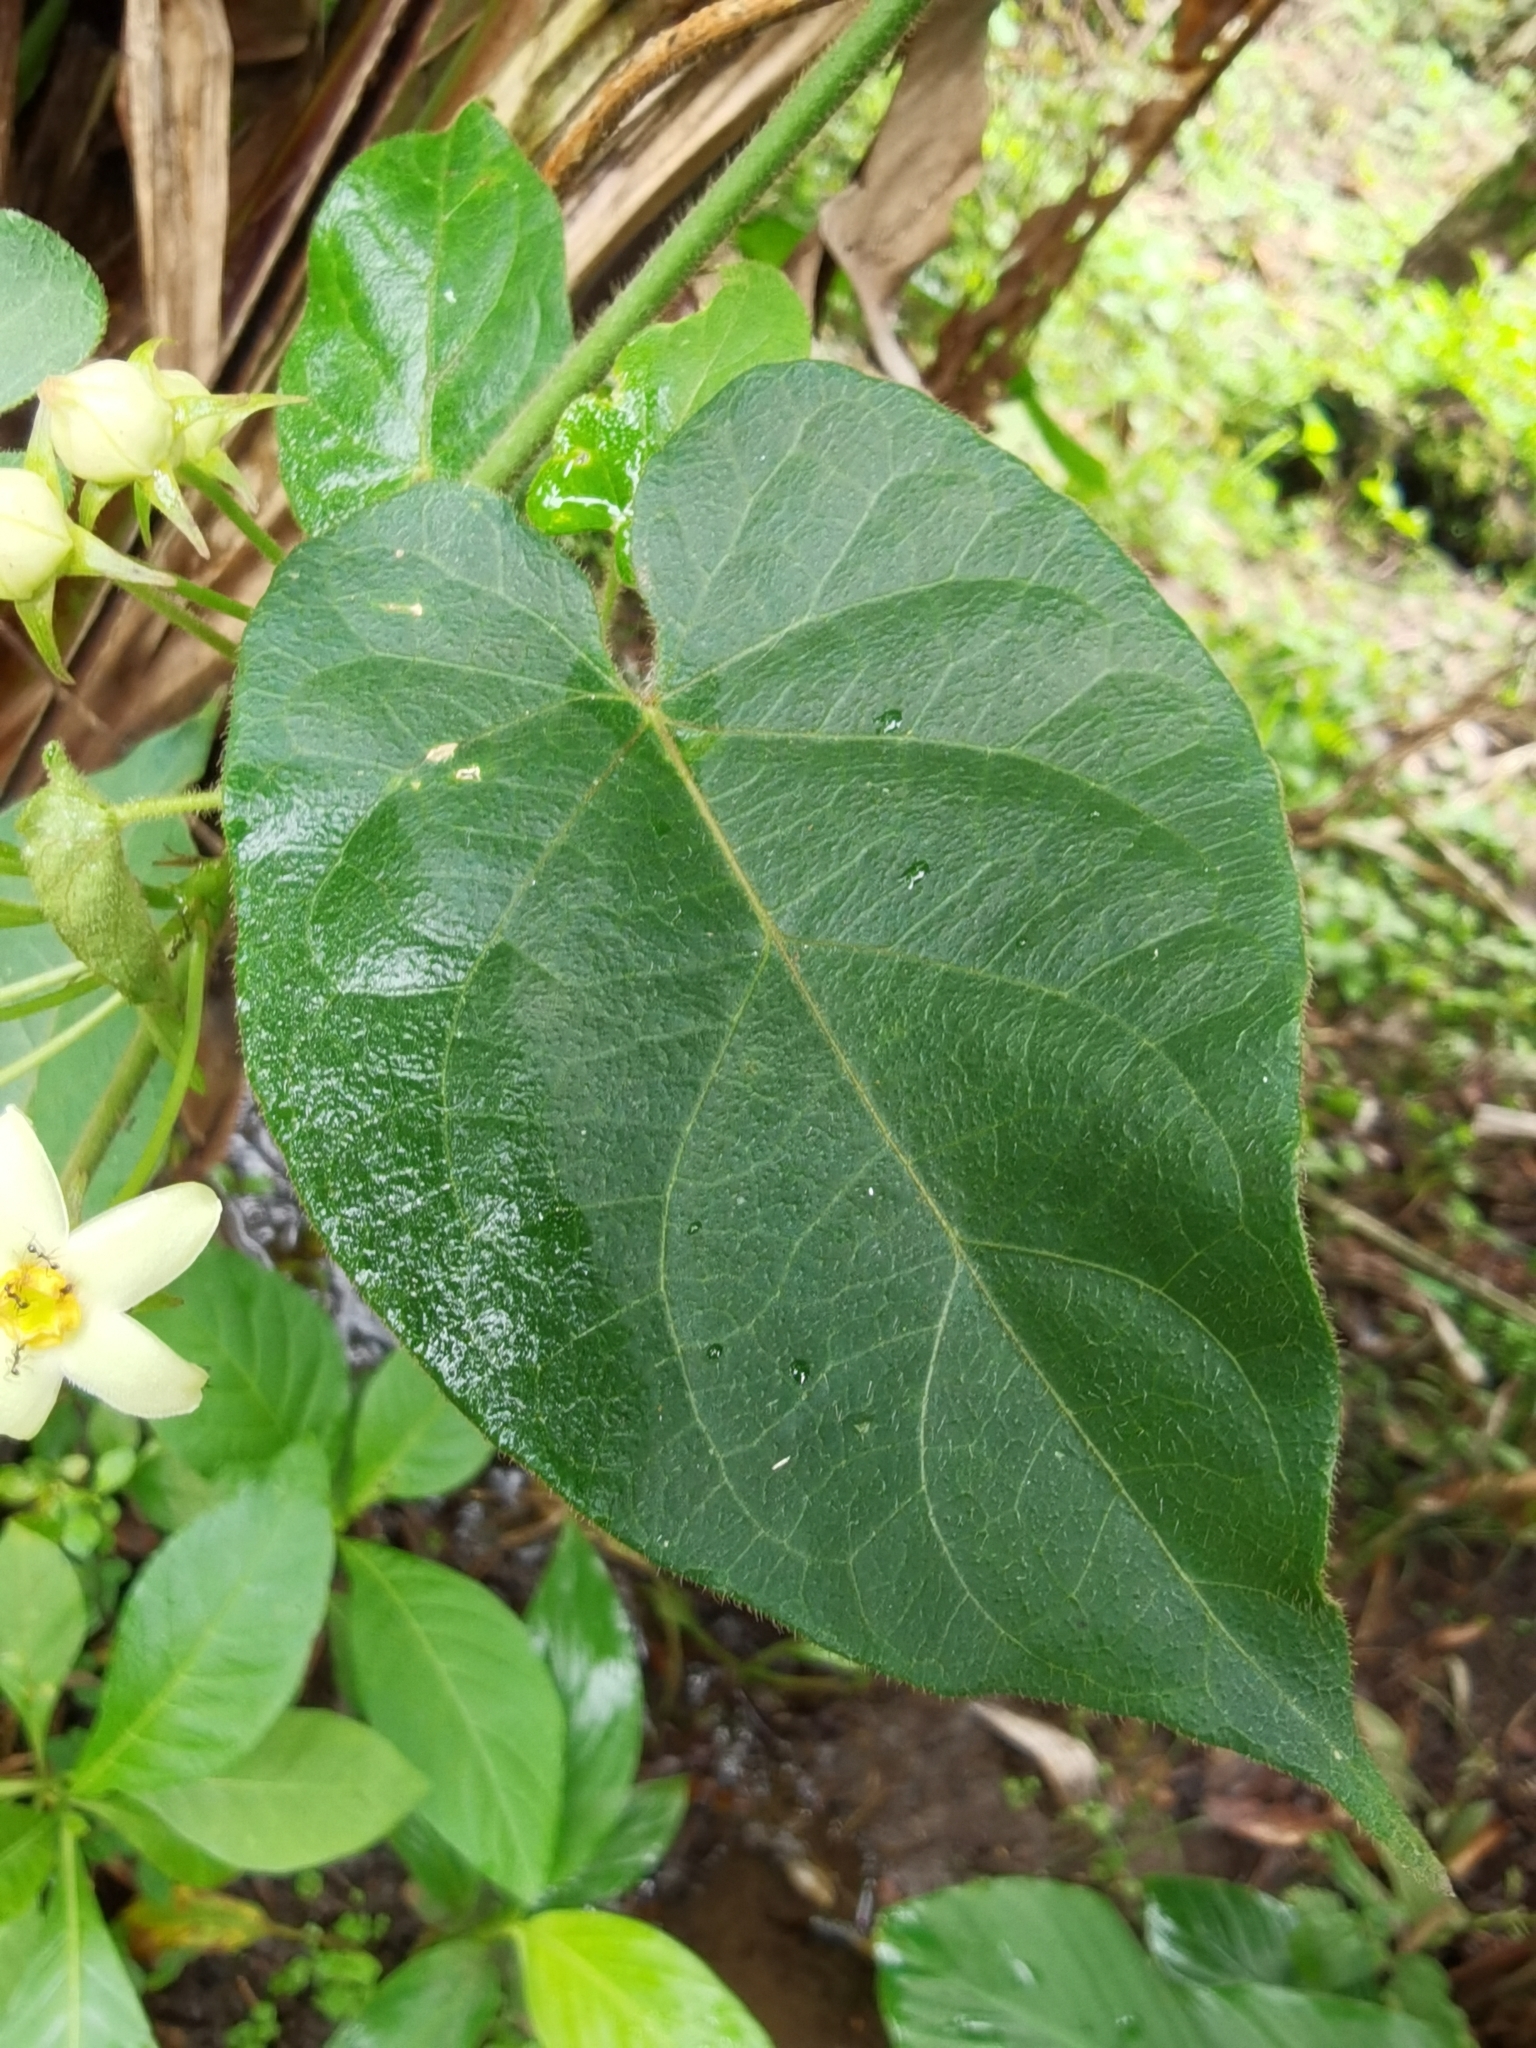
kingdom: Plantae
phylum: Tracheophyta
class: Magnoliopsida
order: Gentianales
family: Apocynaceae
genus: Gonolobus
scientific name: Gonolobus edulis
